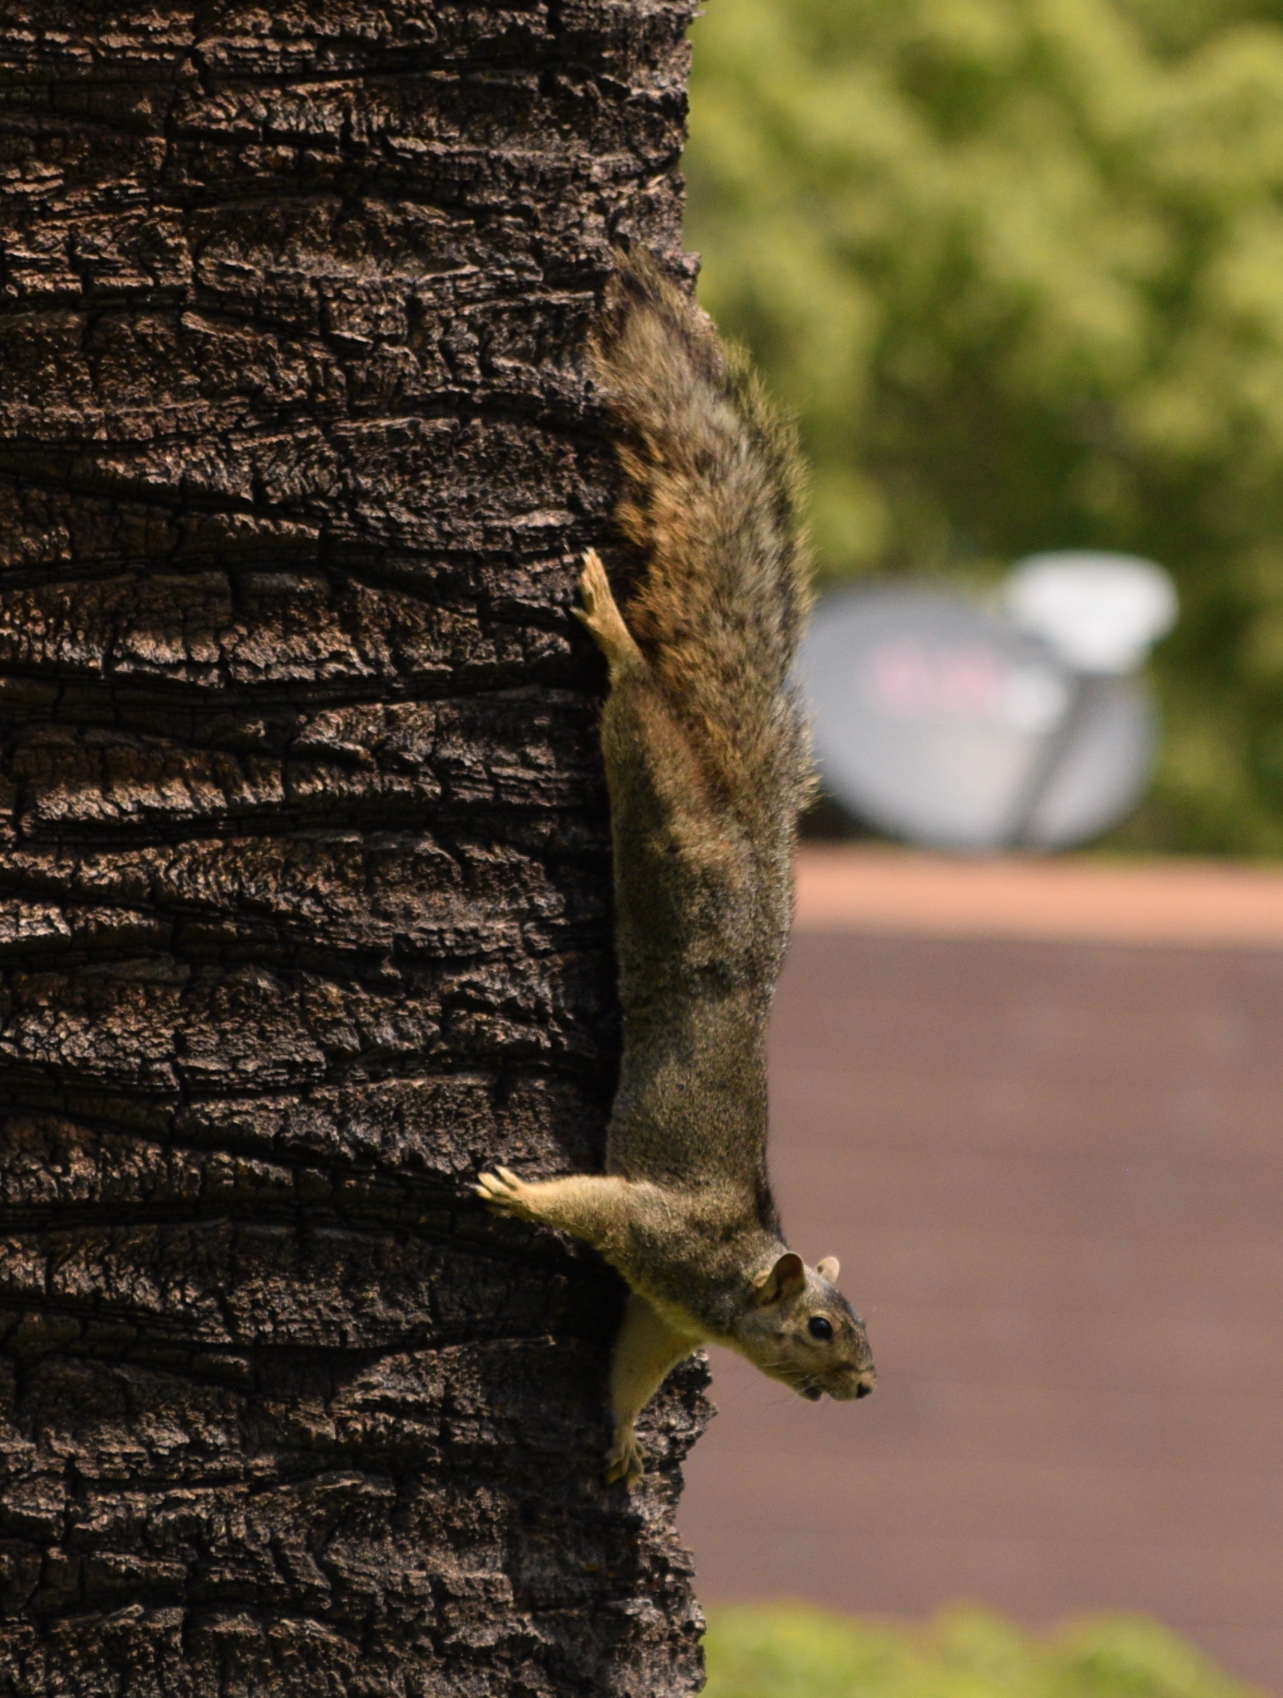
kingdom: Animalia
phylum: Chordata
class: Mammalia
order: Rodentia
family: Sciuridae
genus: Sciurus
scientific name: Sciurus niger
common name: Fox squirrel
